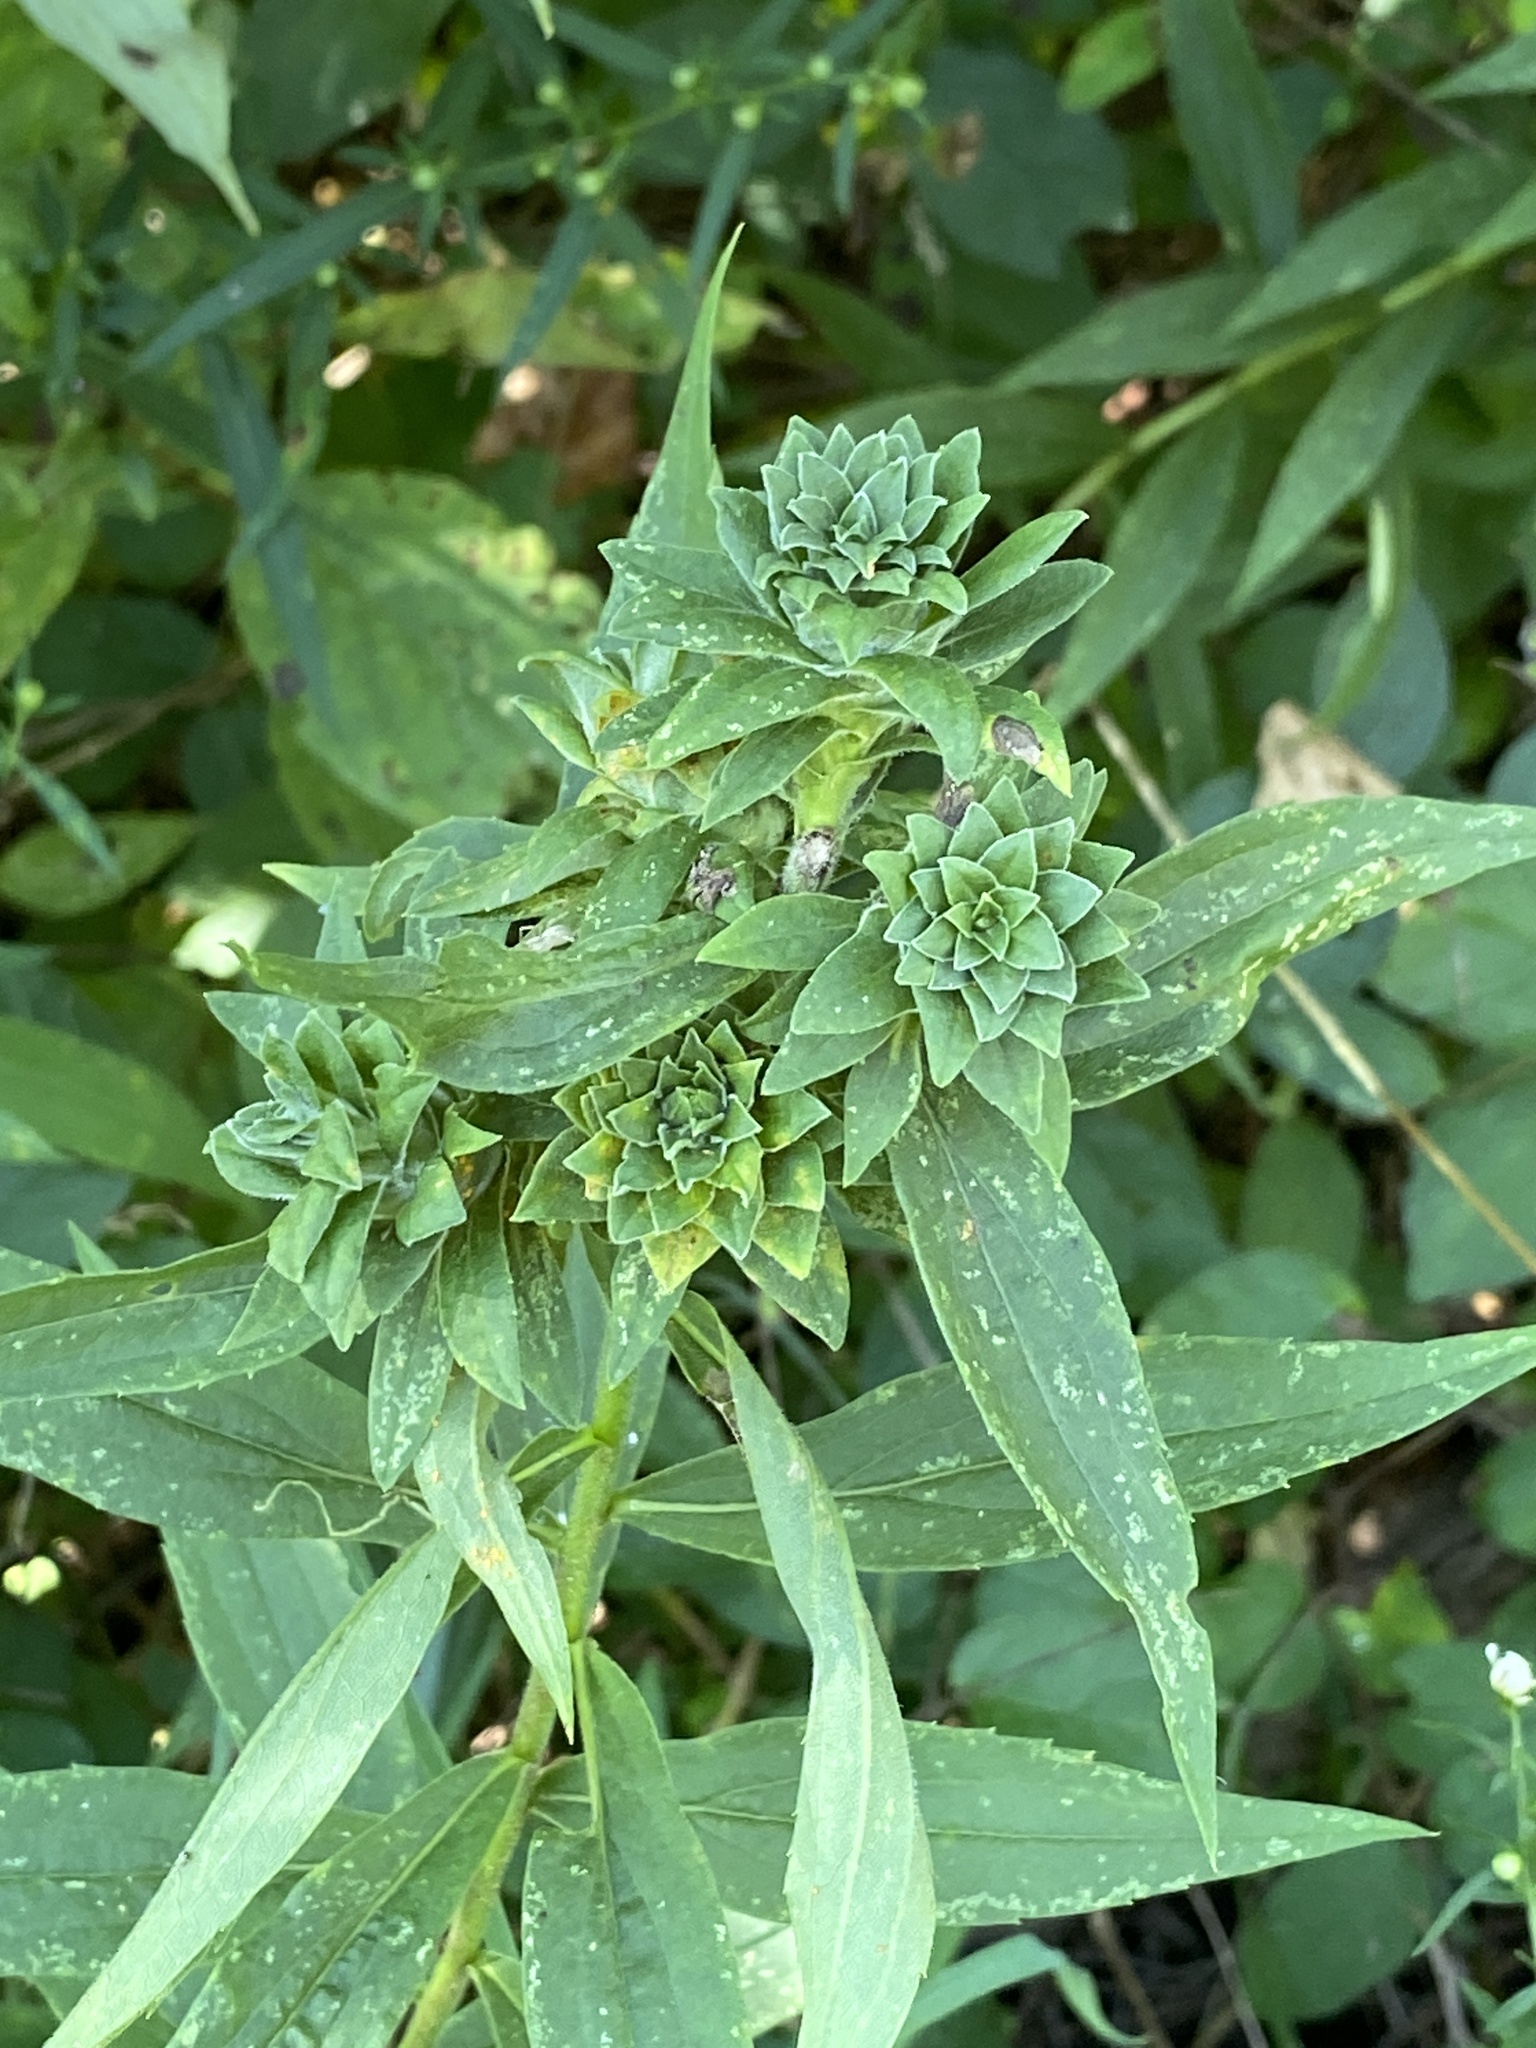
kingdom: Animalia
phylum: Arthropoda
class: Insecta
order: Diptera
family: Tephritidae
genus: Procecidochares
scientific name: Procecidochares atra
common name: Goldenrod brussels sprout gall fly
